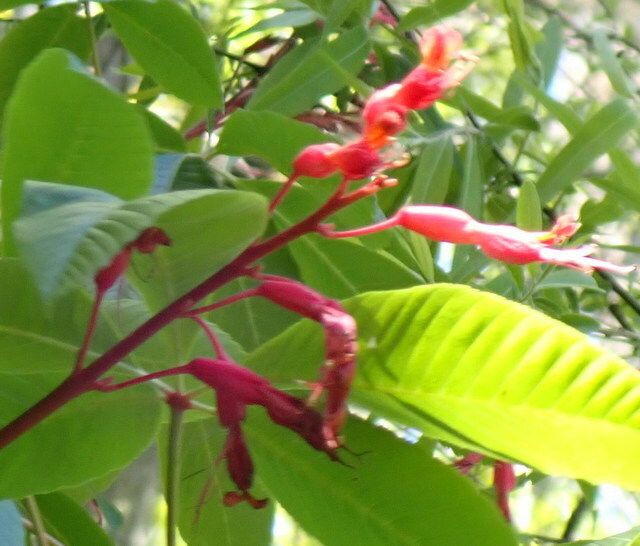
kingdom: Plantae
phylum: Tracheophyta
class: Magnoliopsida
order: Sapindales
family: Sapindaceae
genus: Aesculus
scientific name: Aesculus pavia
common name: Red buckeye
